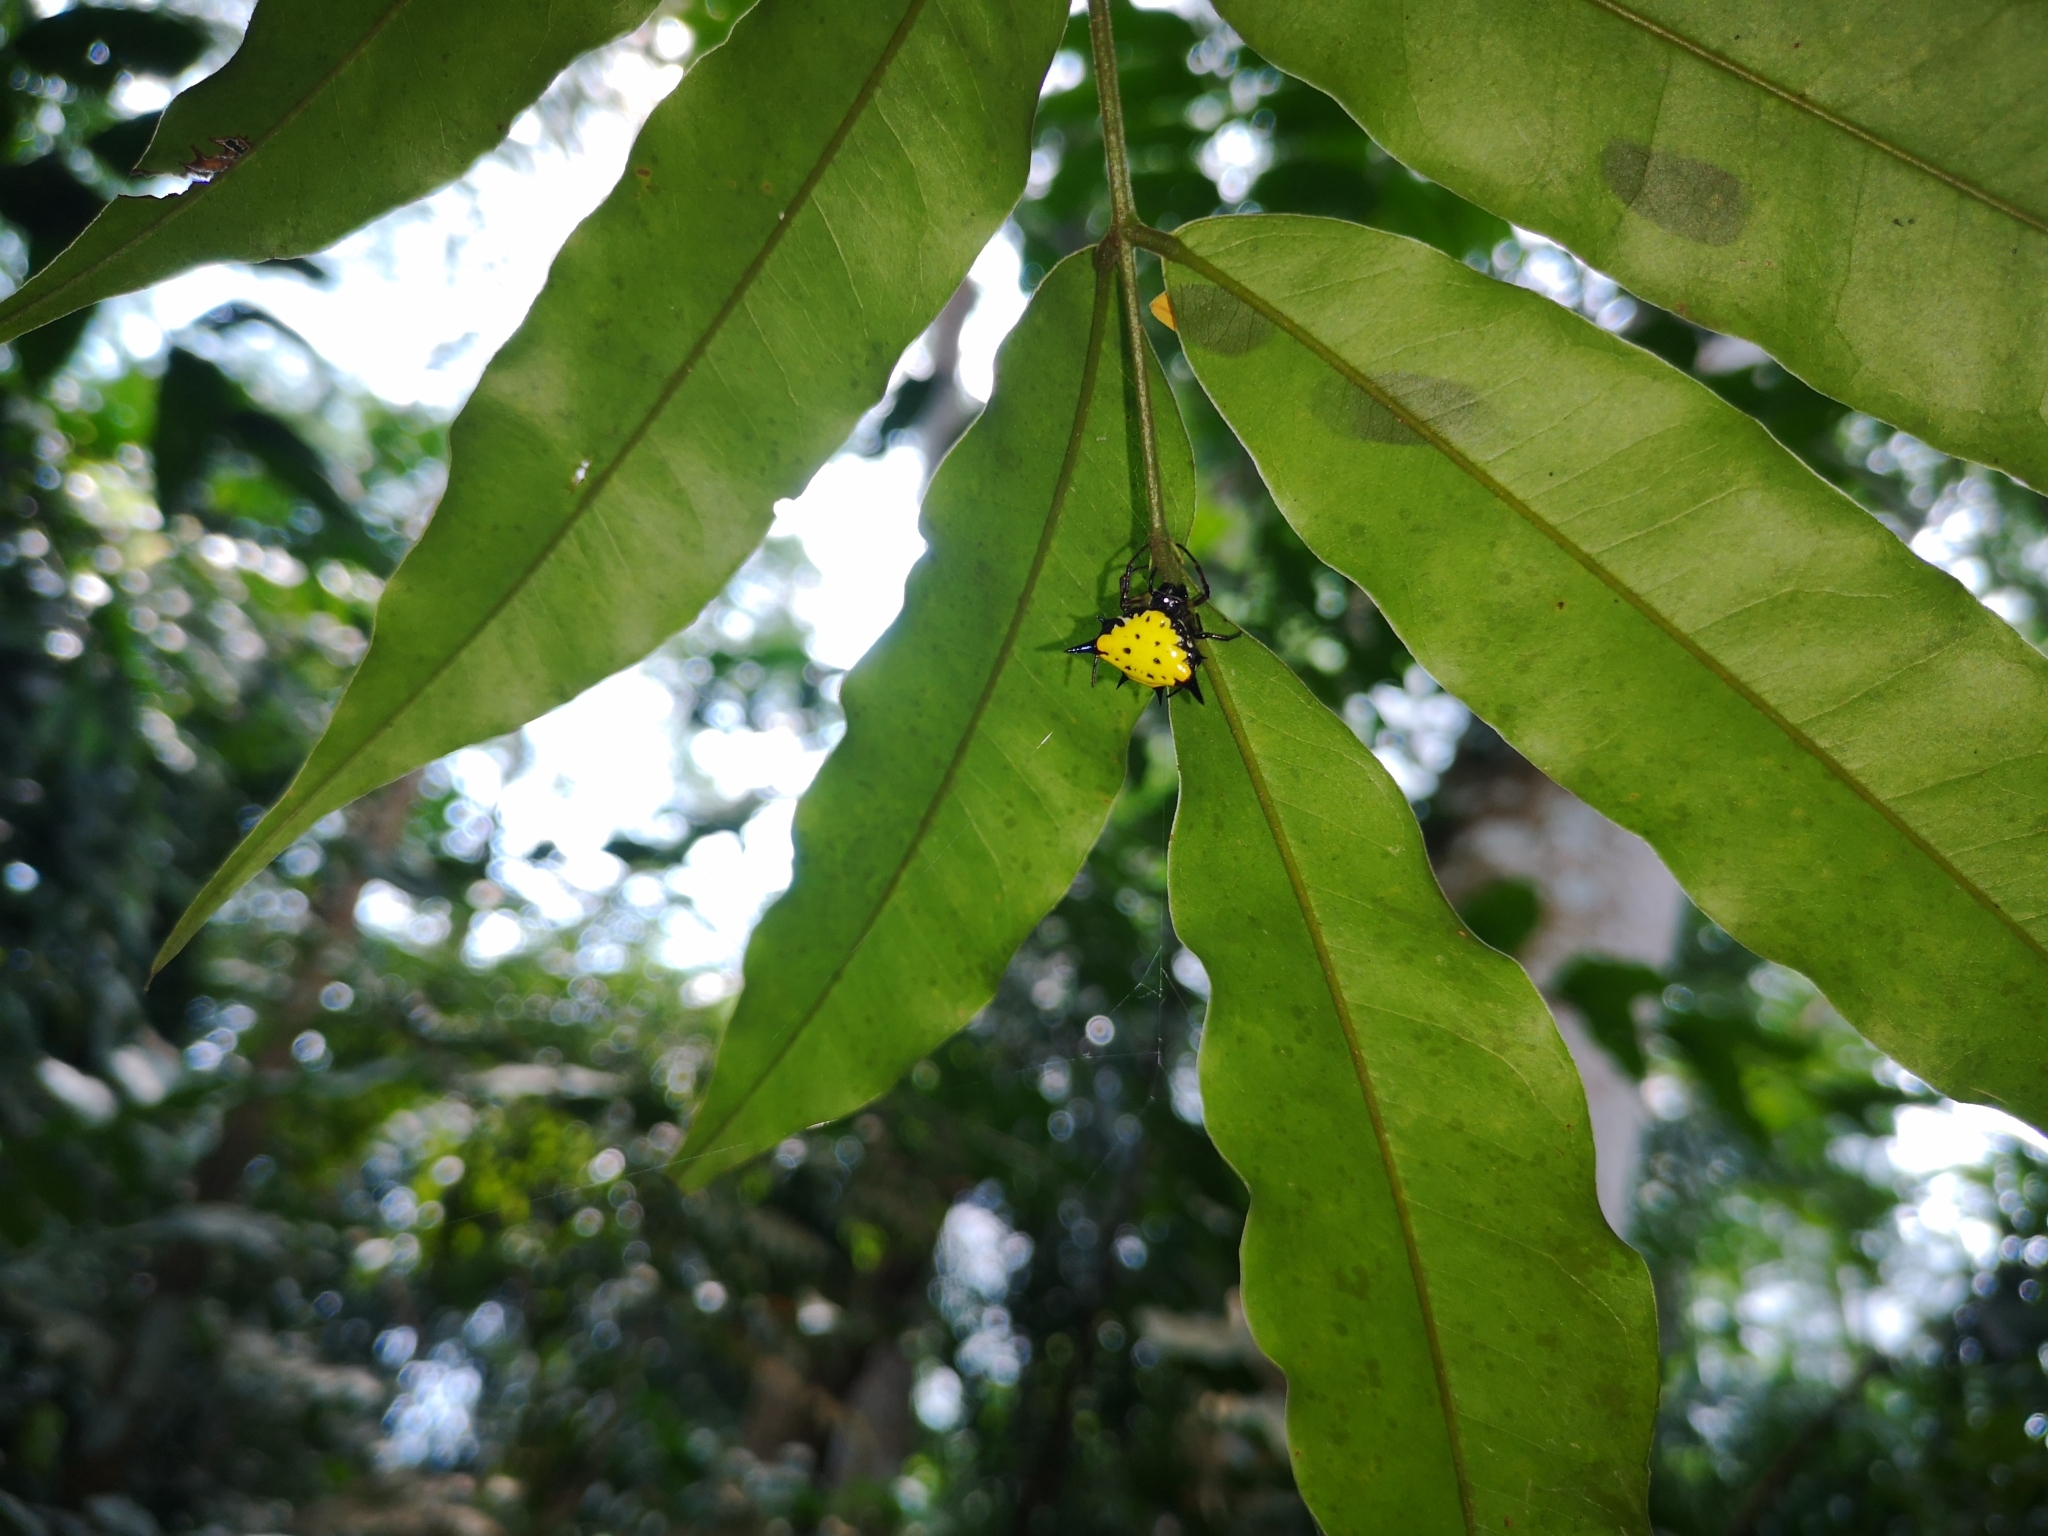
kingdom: Animalia
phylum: Arthropoda
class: Arachnida
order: Araneae
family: Araneidae
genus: Macracantha
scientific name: Macracantha hasselti
